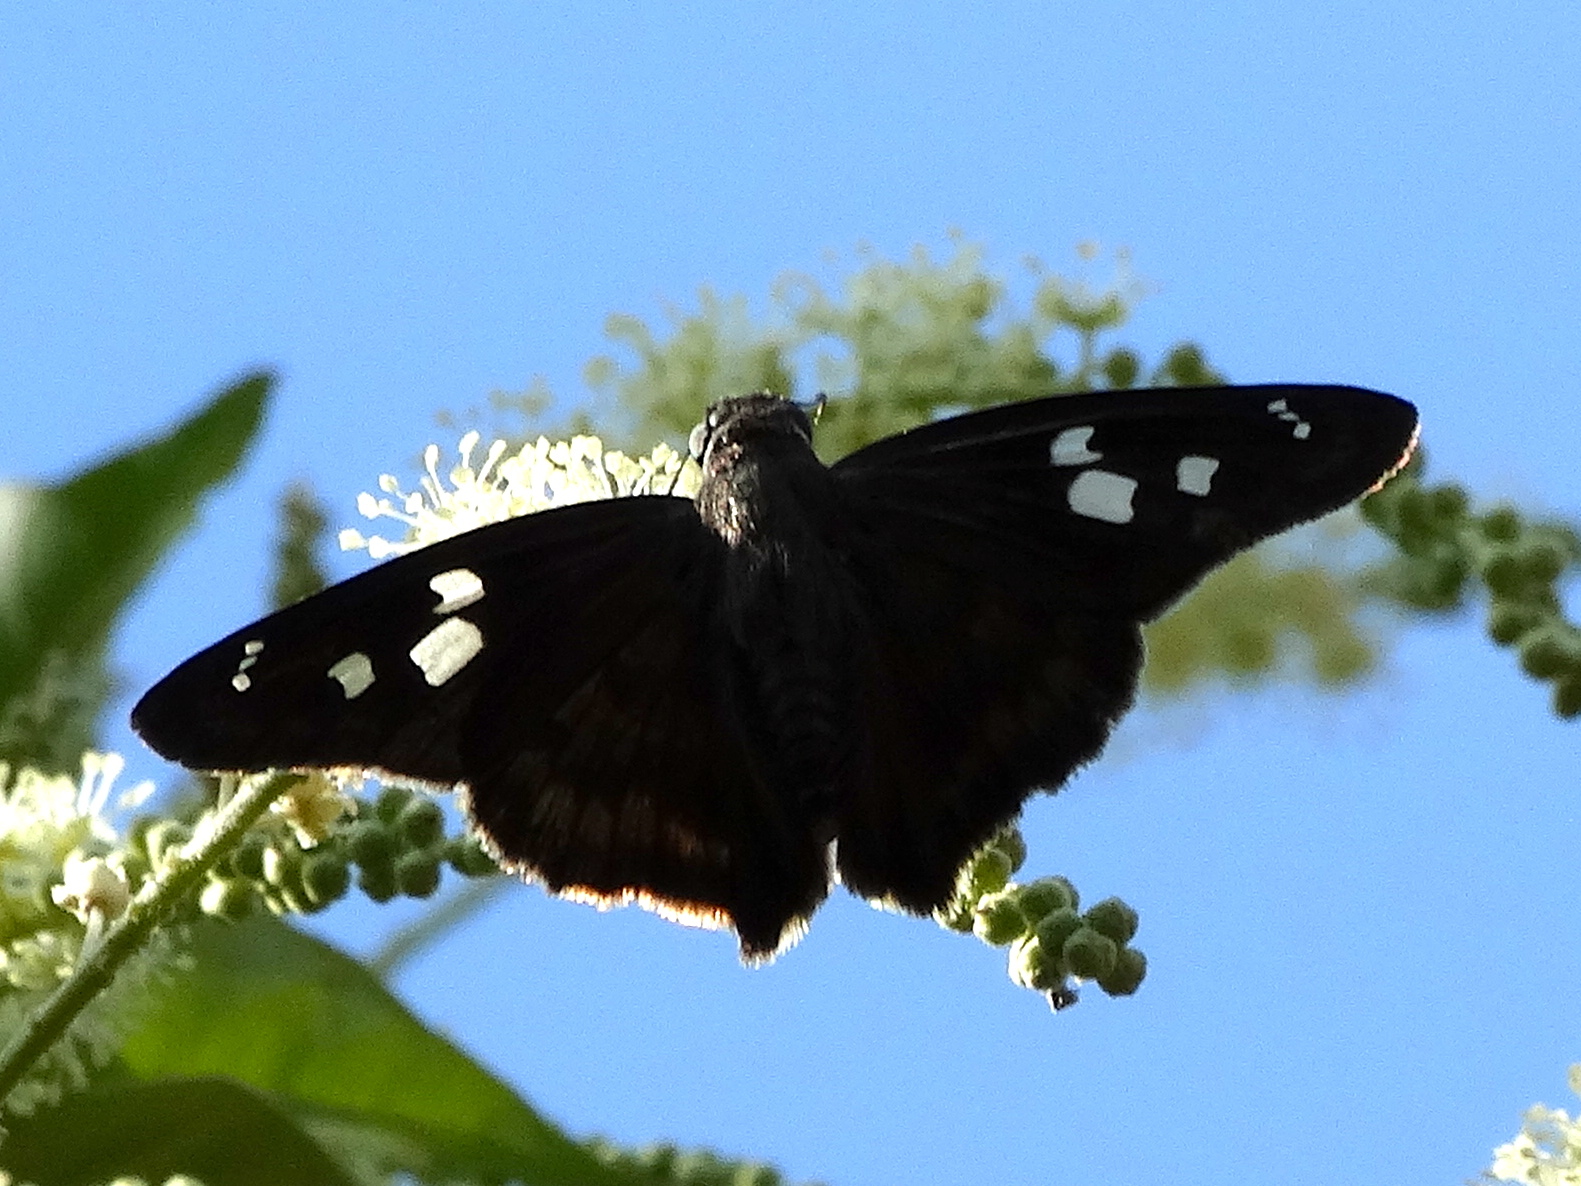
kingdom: Animalia
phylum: Arthropoda
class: Insecta
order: Lepidoptera
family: Hesperiidae
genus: Polygonus
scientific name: Polygonus leo
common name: Hammoch skipper
